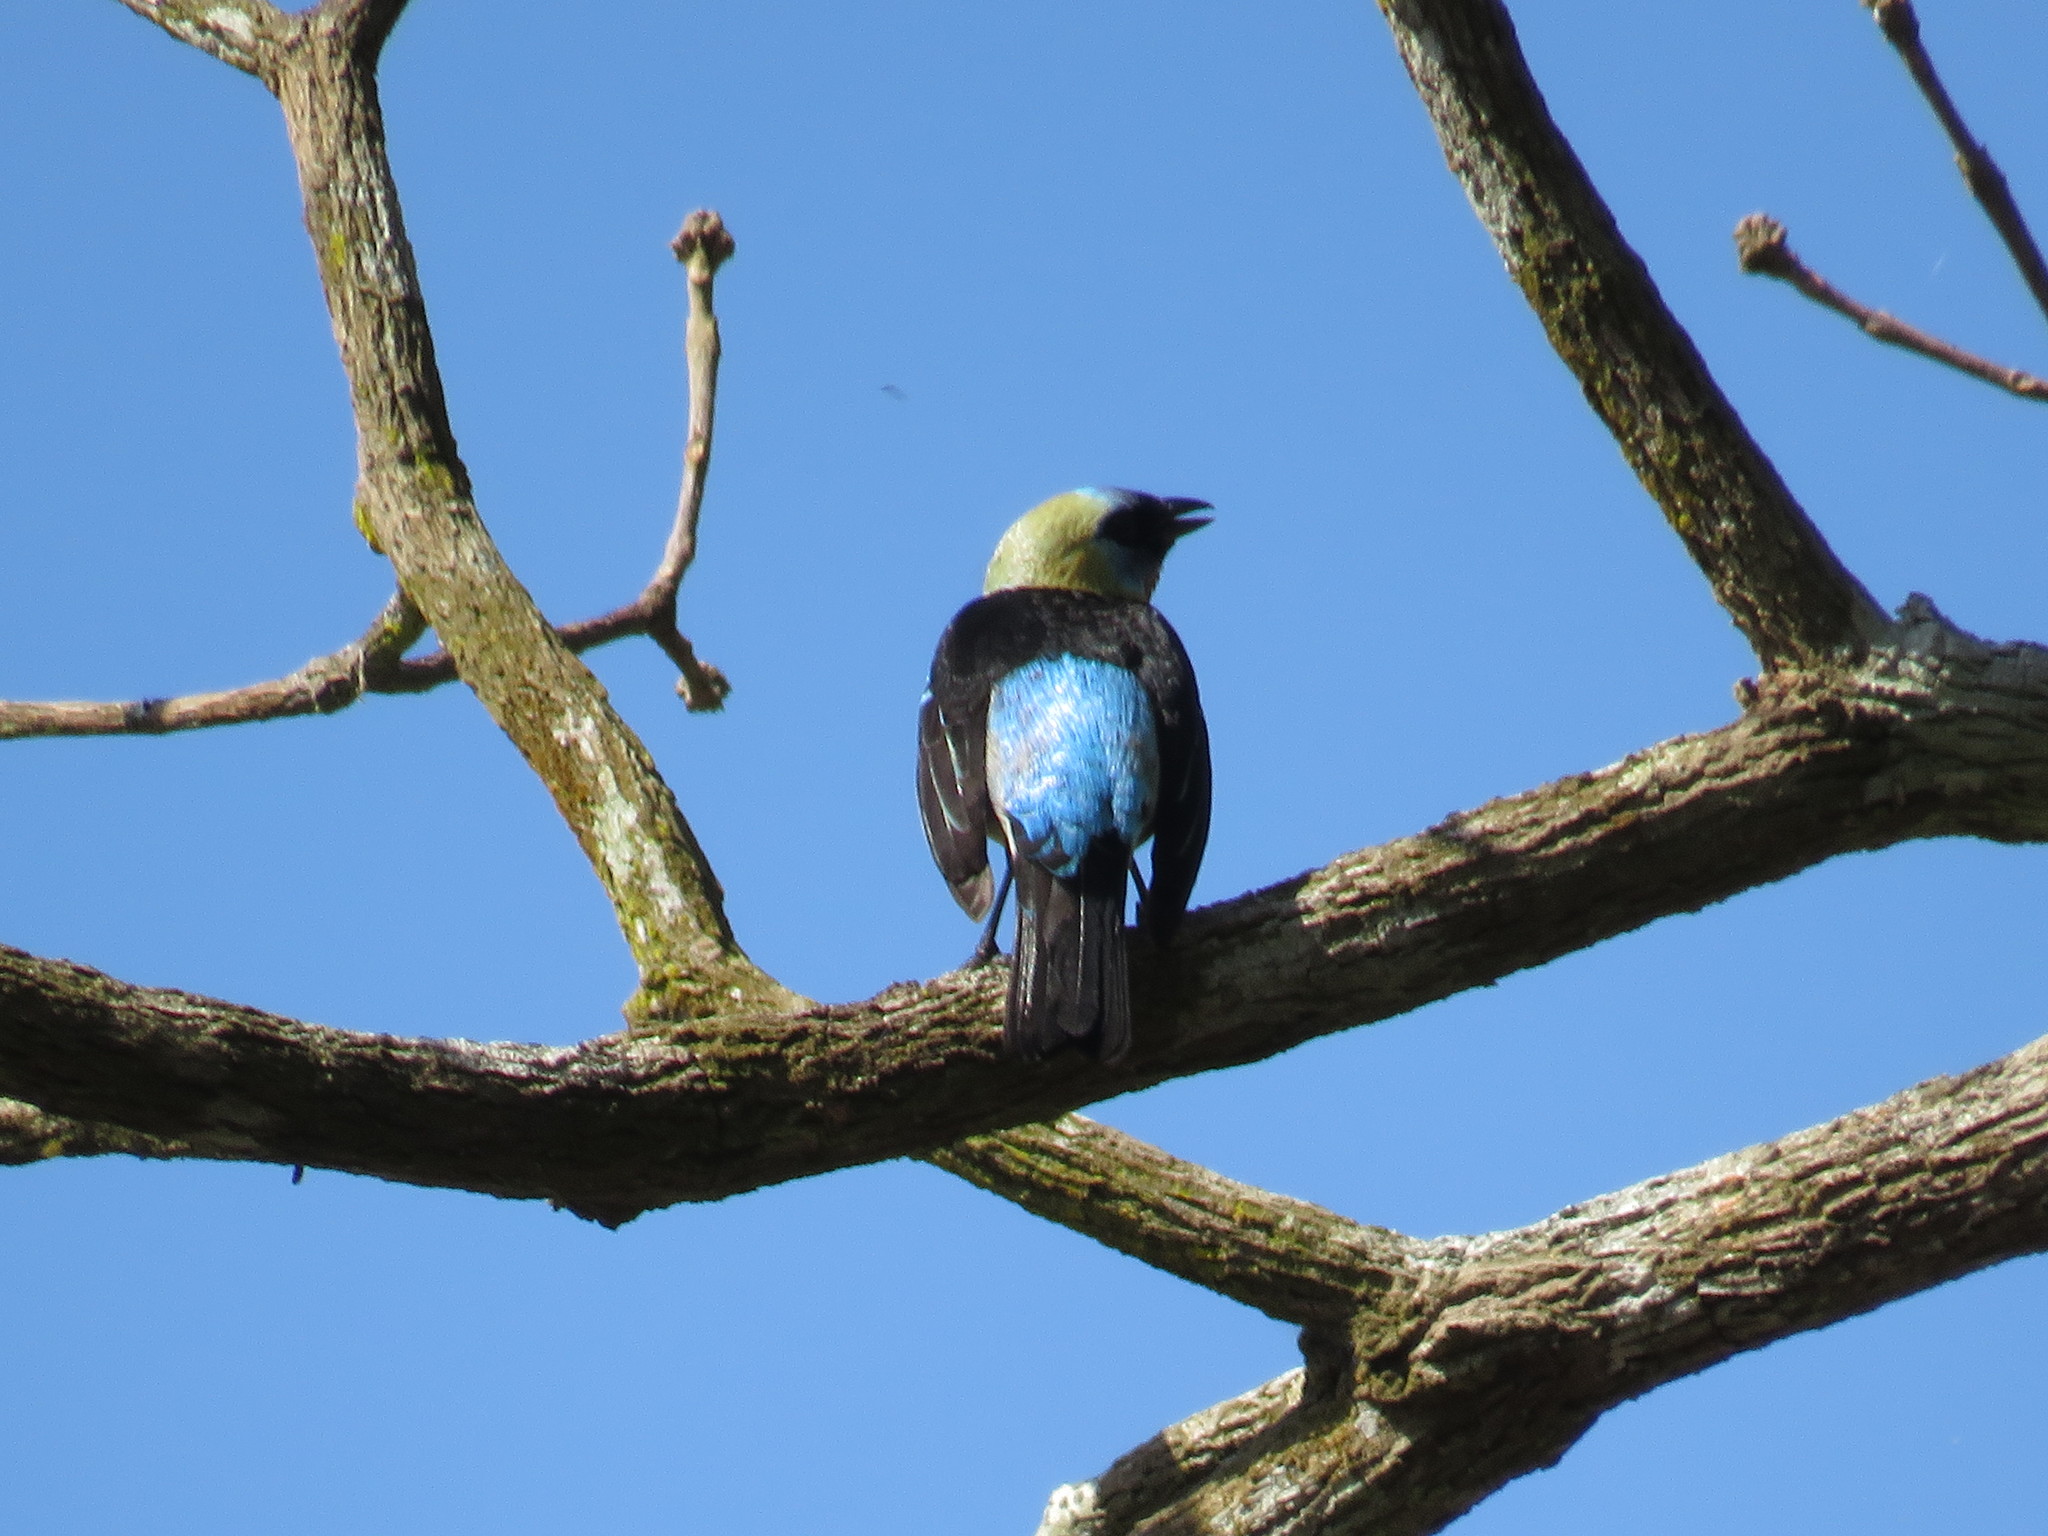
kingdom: Animalia
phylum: Chordata
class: Aves
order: Passeriformes
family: Thraupidae
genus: Stilpnia
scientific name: Stilpnia larvata
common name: Golden-hooded tanager
